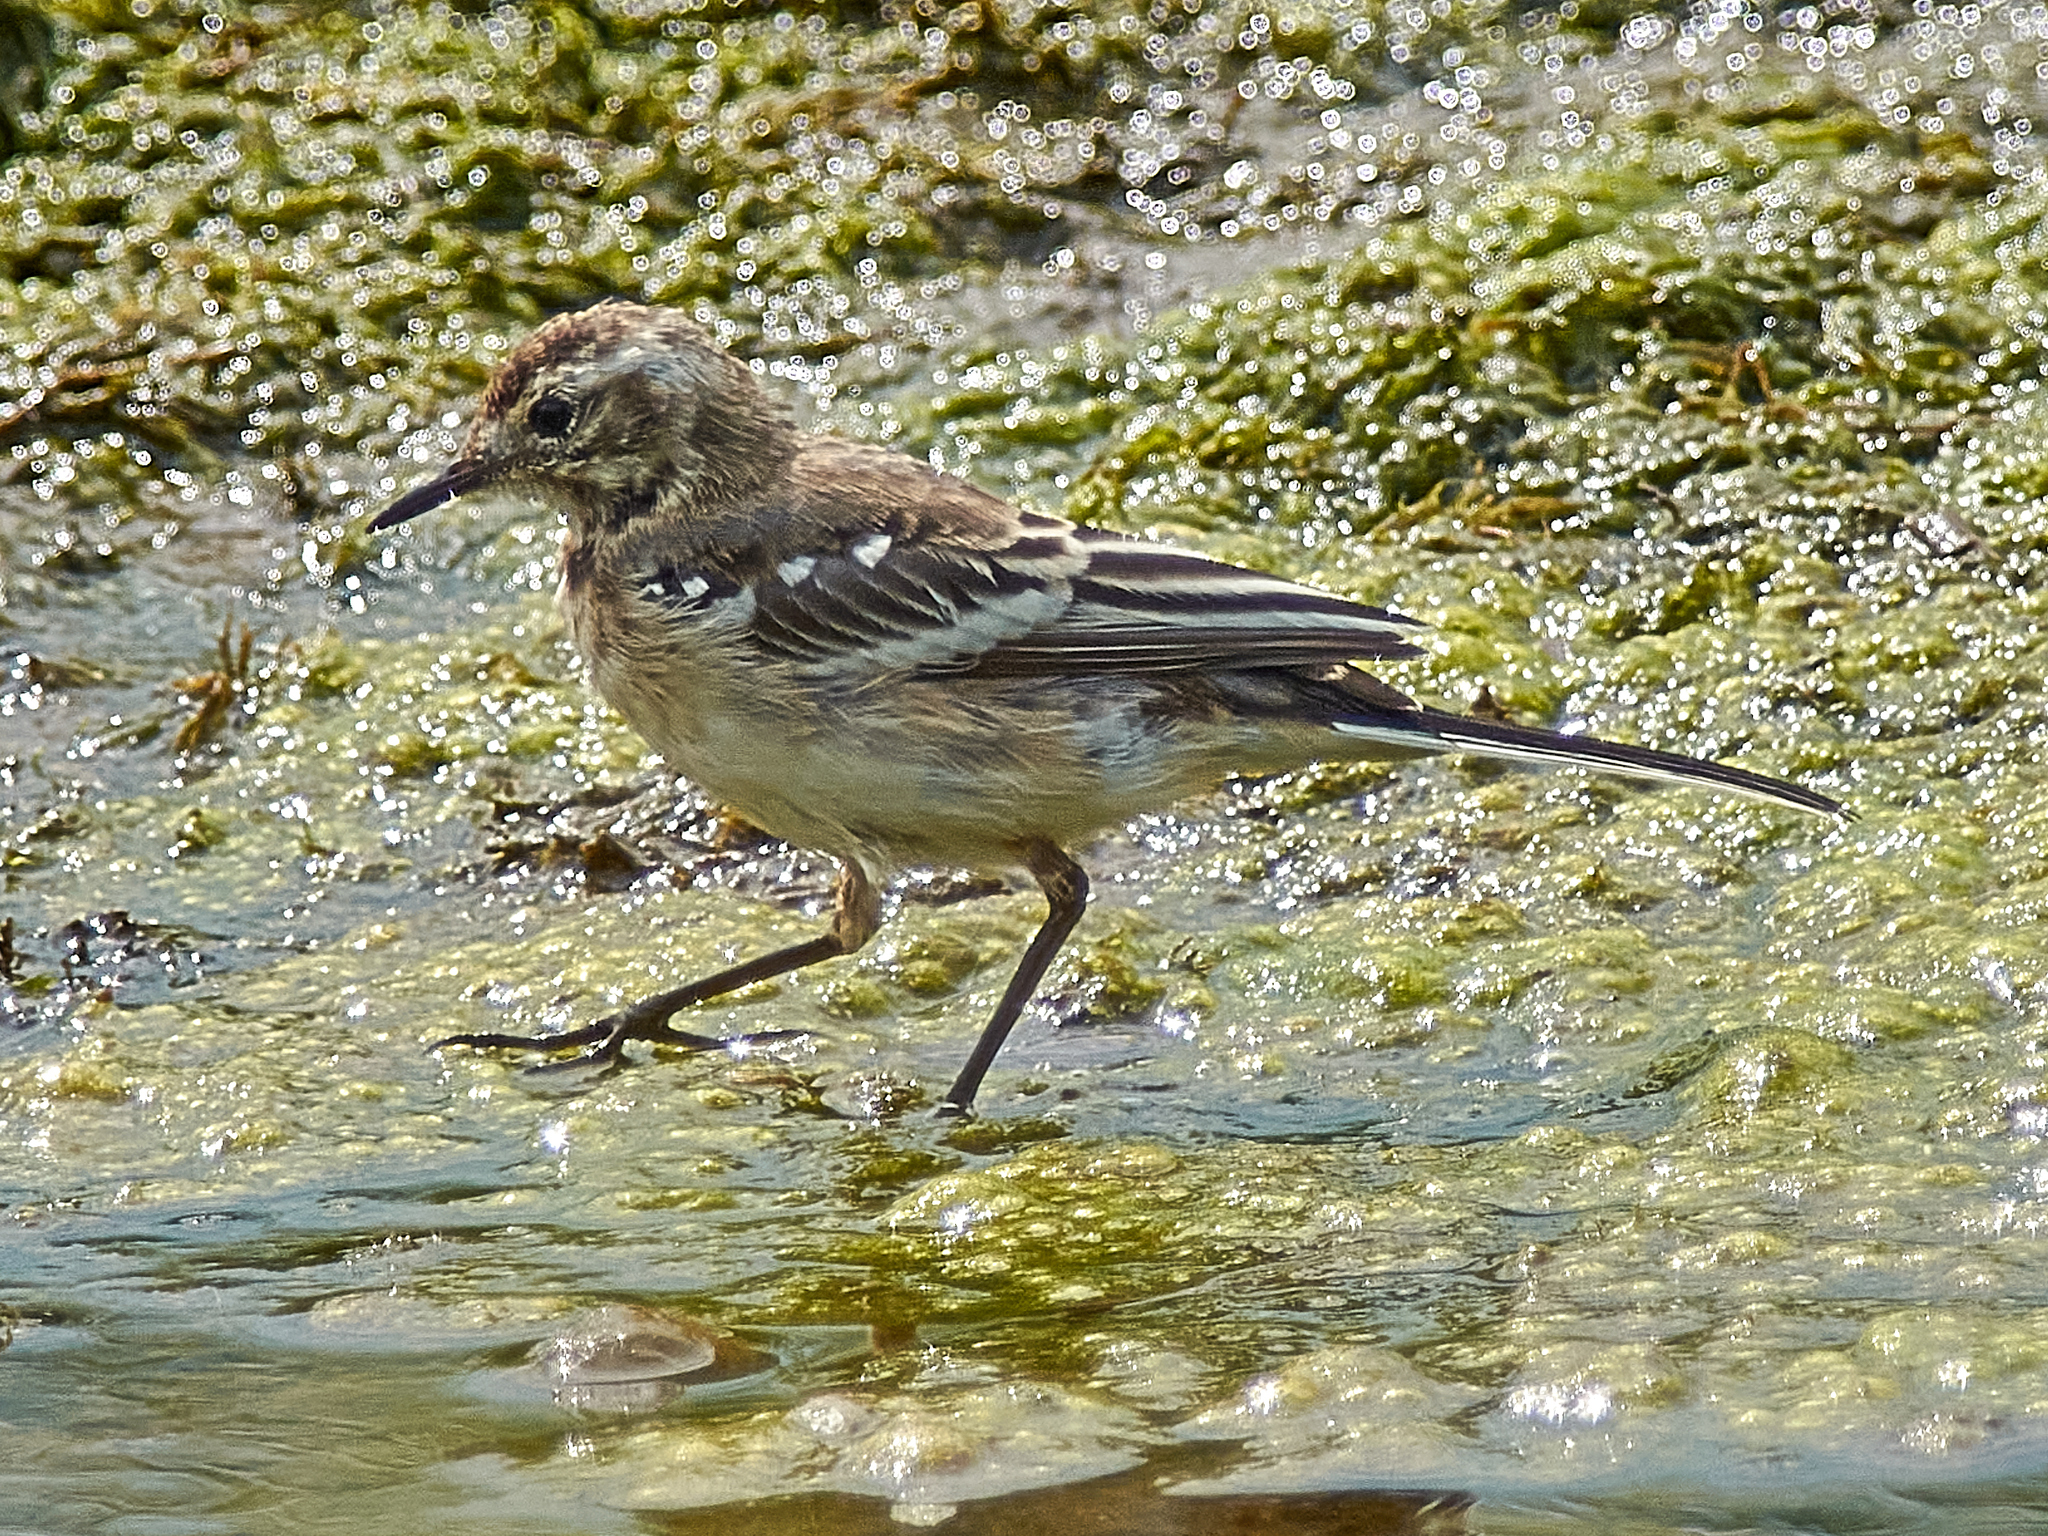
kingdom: Animalia
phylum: Chordata
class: Aves
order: Passeriformes
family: Motacillidae
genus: Motacilla
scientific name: Motacilla citreola
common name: Citrine wagtail
